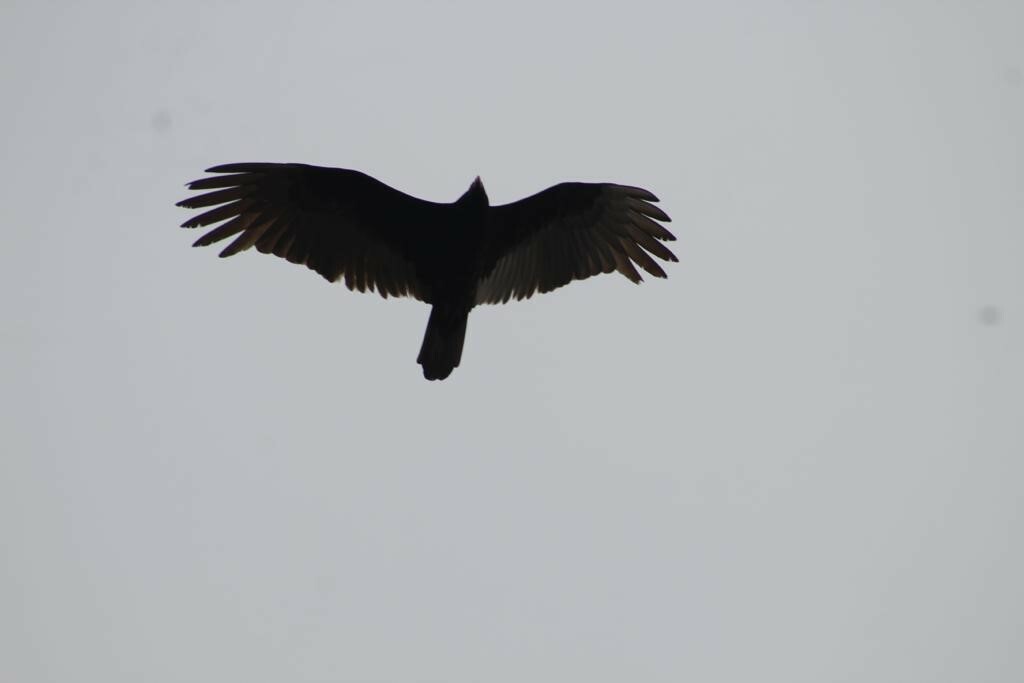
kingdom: Animalia
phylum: Chordata
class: Aves
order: Accipitriformes
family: Cathartidae
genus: Cathartes
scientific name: Cathartes aura
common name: Turkey vulture
